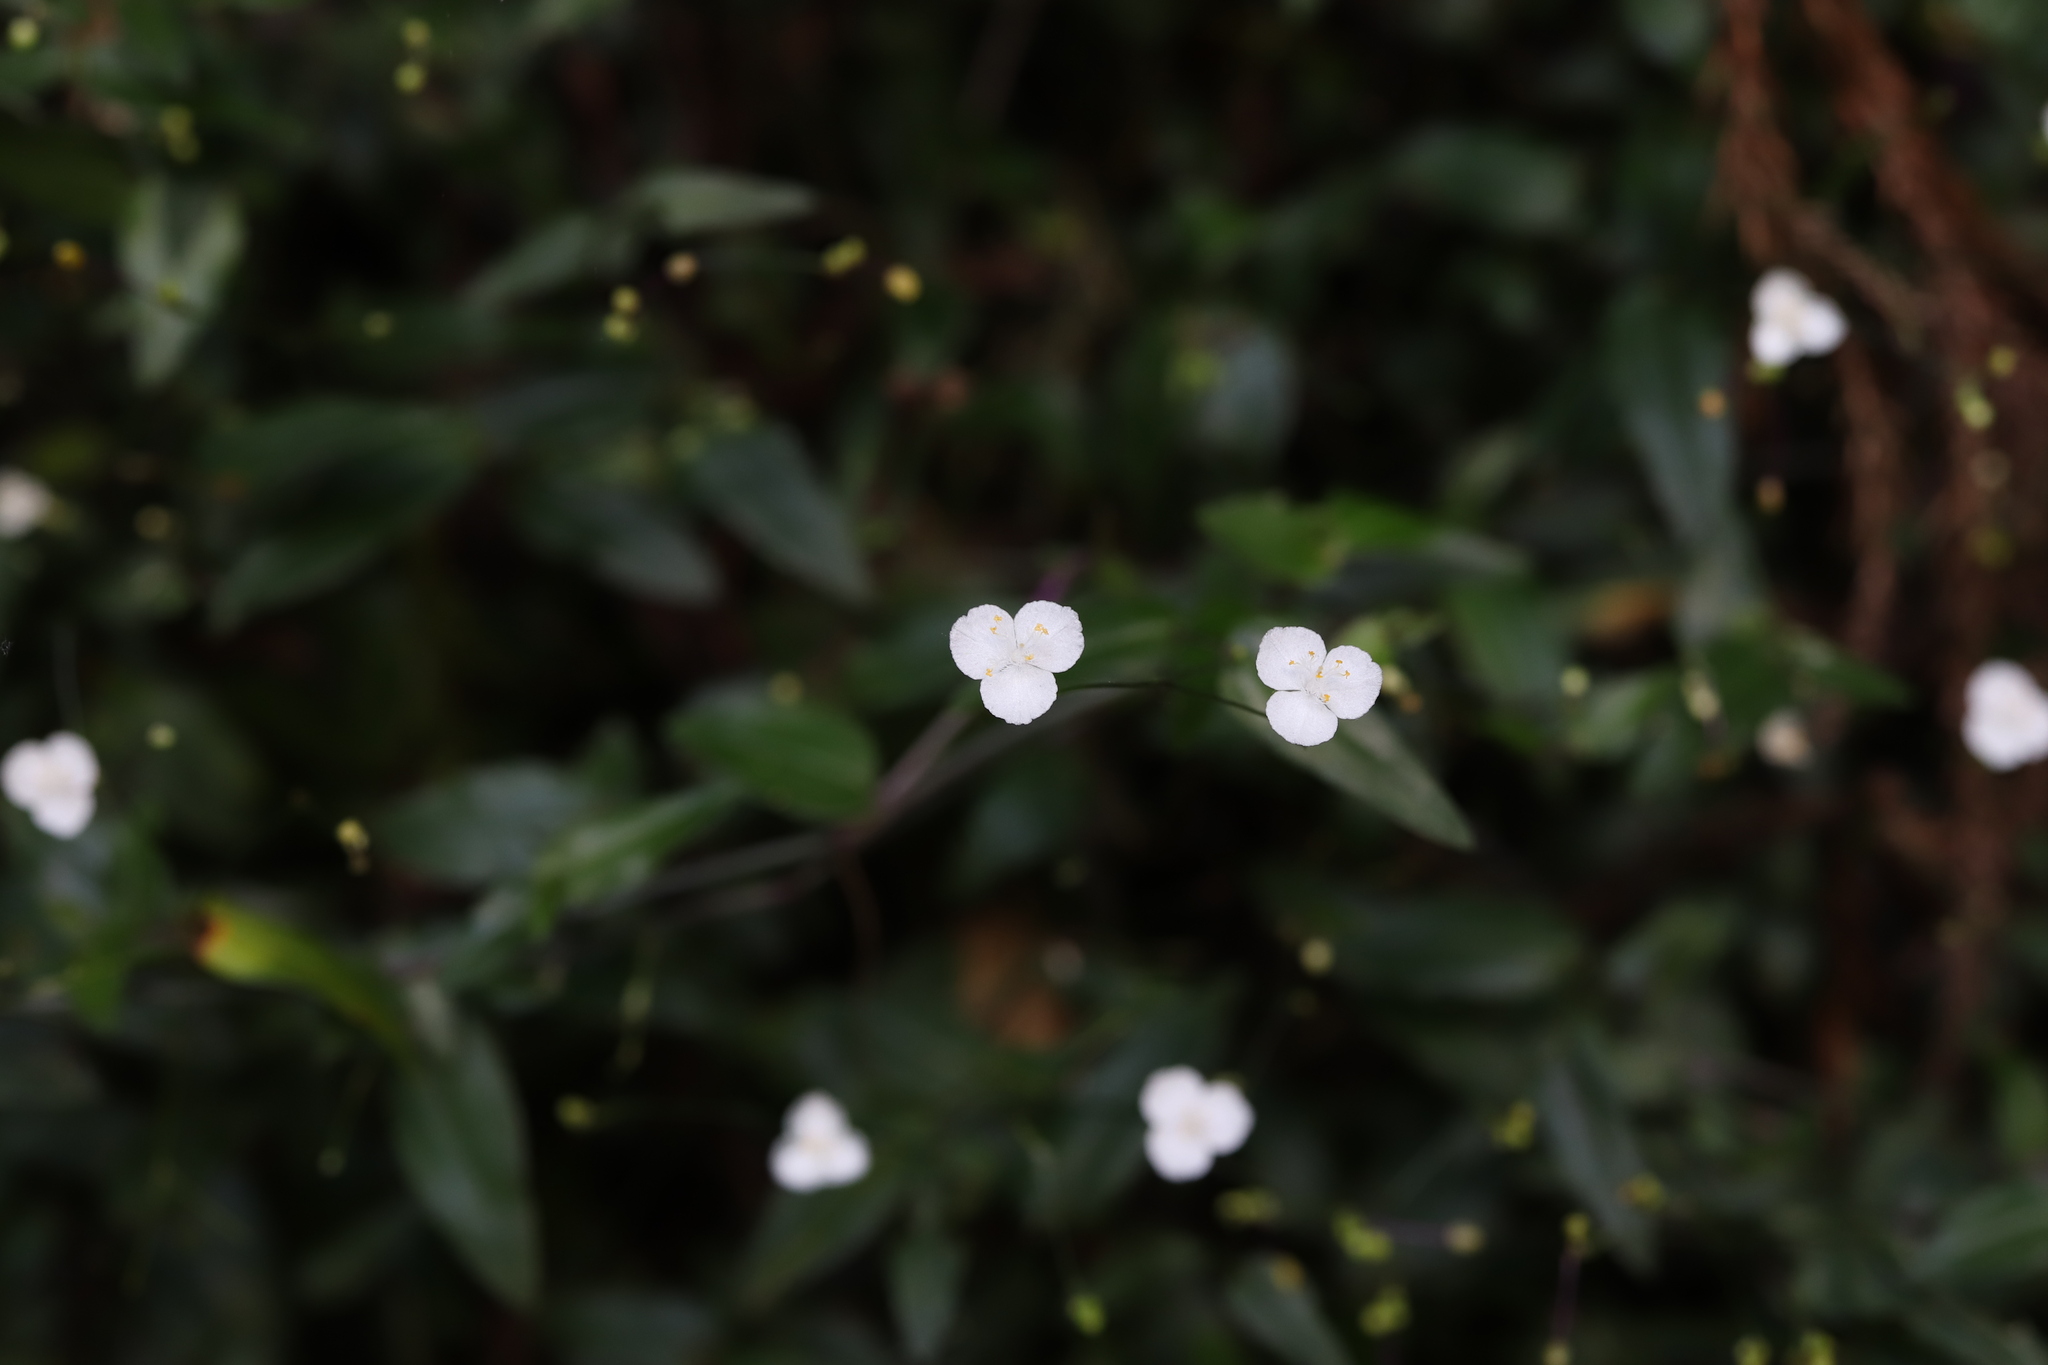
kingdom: Plantae
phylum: Tracheophyta
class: Liliopsida
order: Commelinales
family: Commelinaceae
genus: Gibasis
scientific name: Gibasis pellucida
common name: Dotted bridalveil
